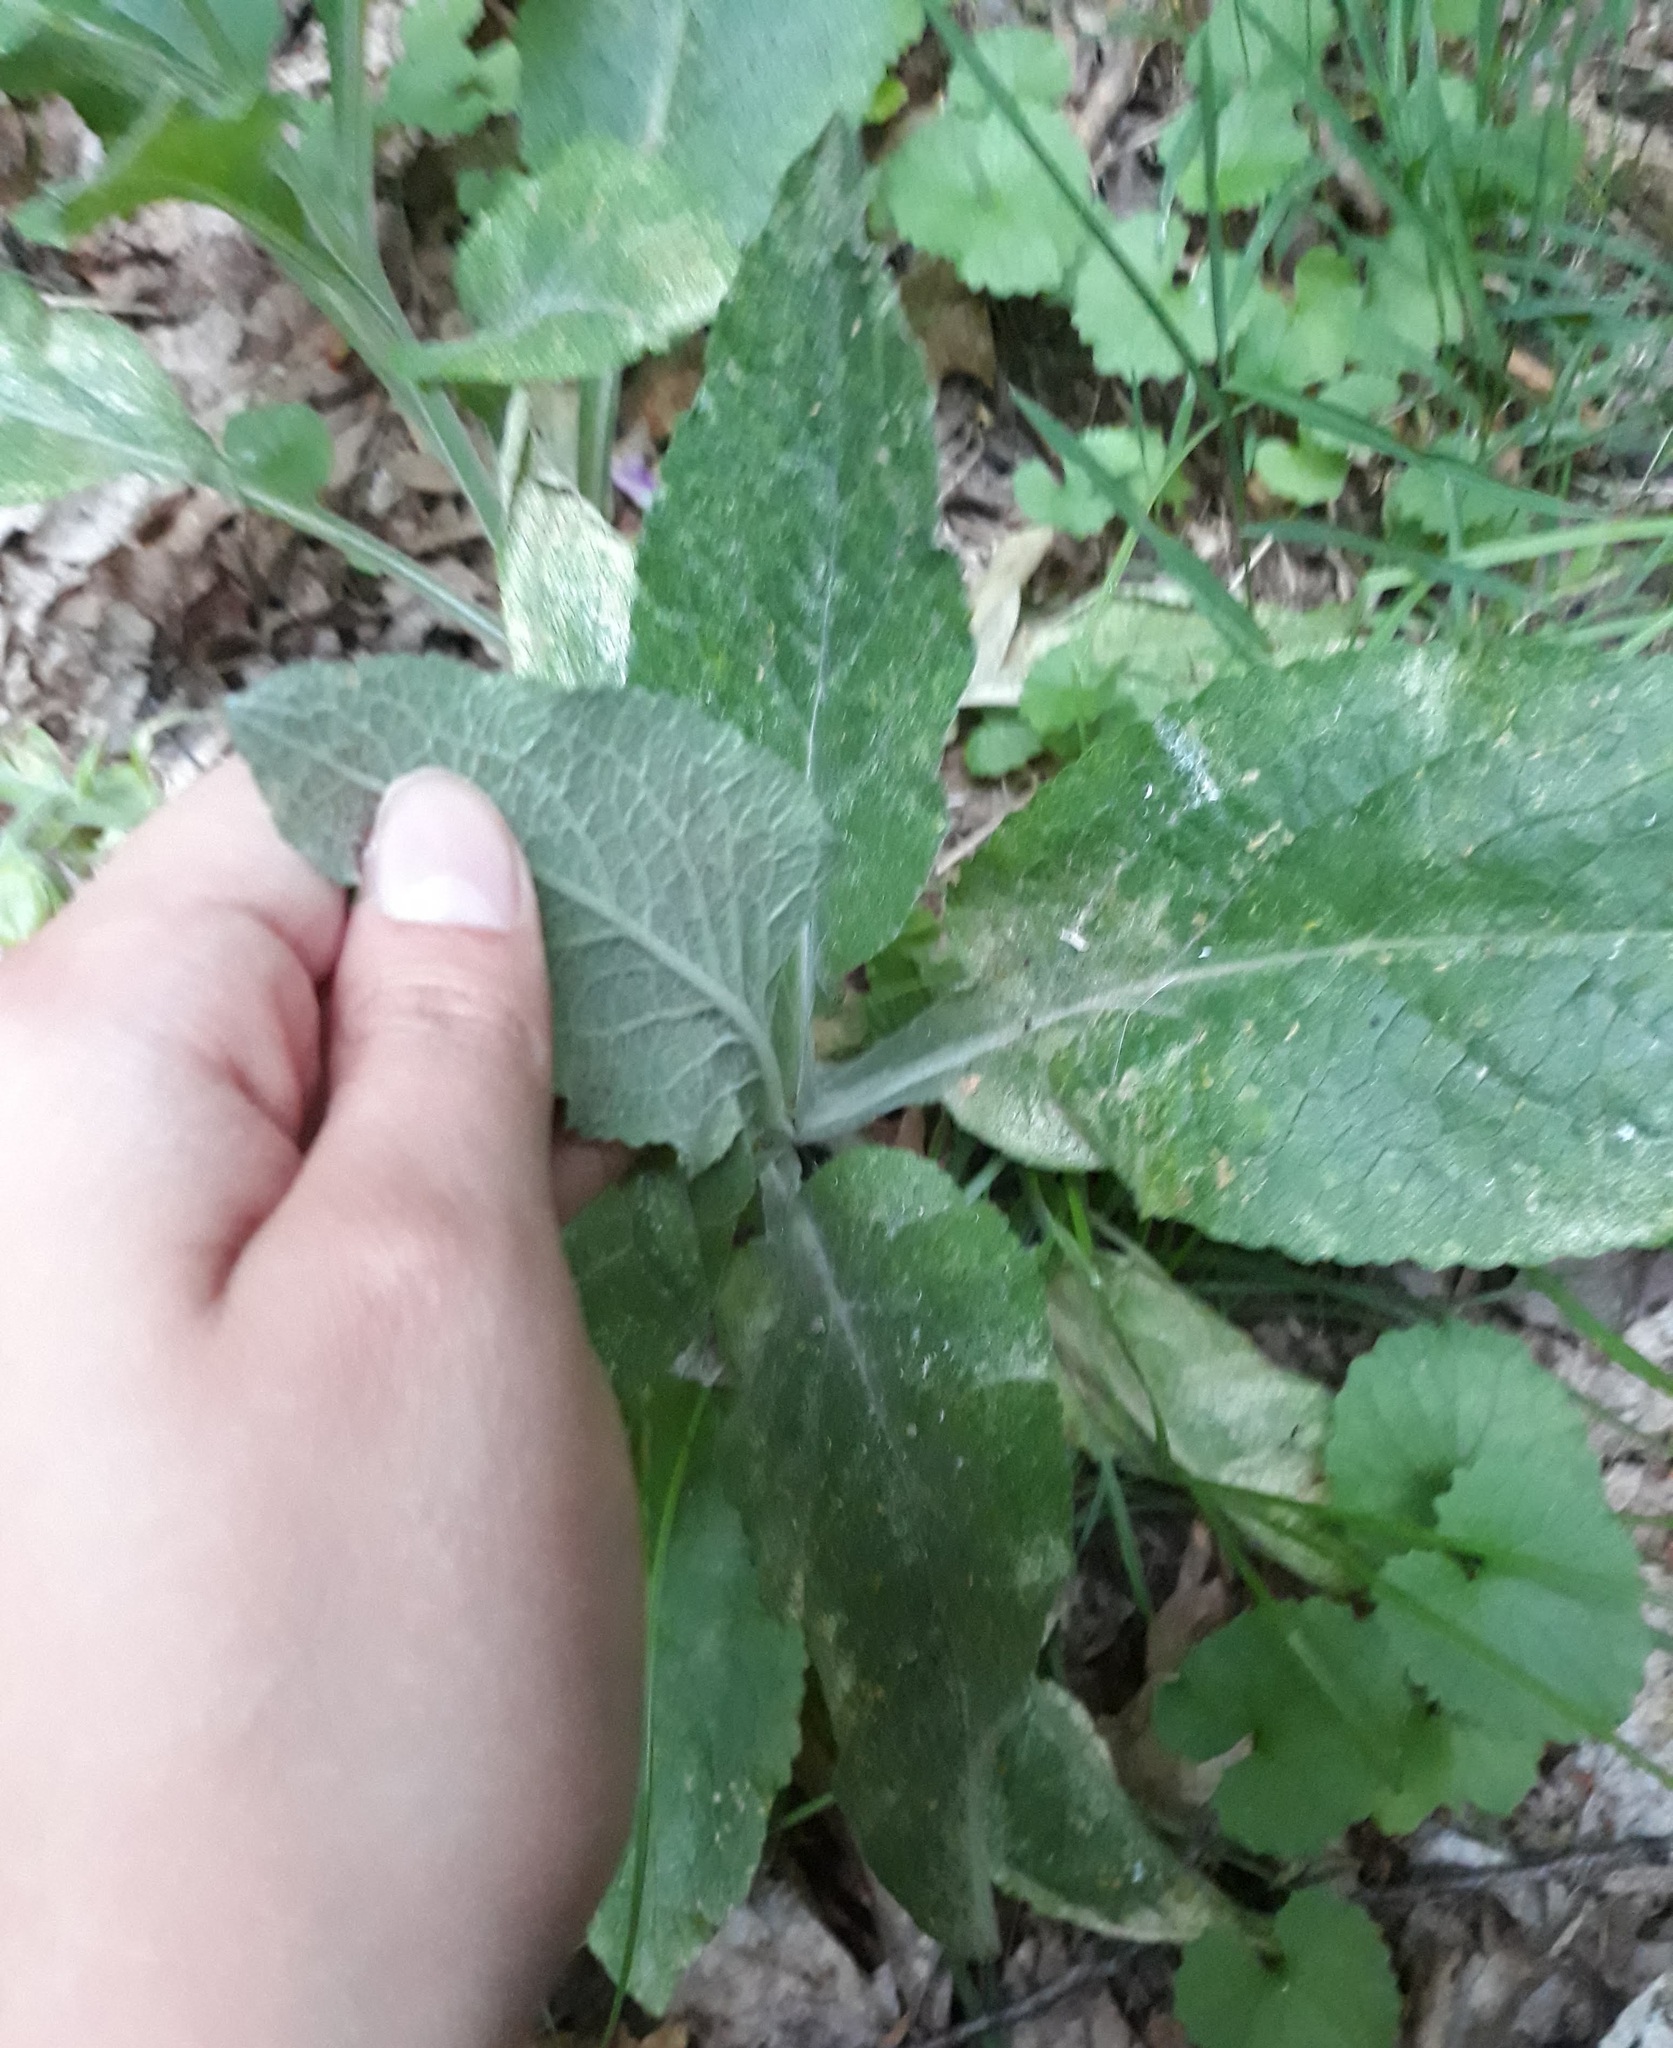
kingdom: Plantae
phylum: Tracheophyta
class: Magnoliopsida
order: Lamiales
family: Plantaginaceae
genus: Digitalis
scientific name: Digitalis purpurea
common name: Foxglove
